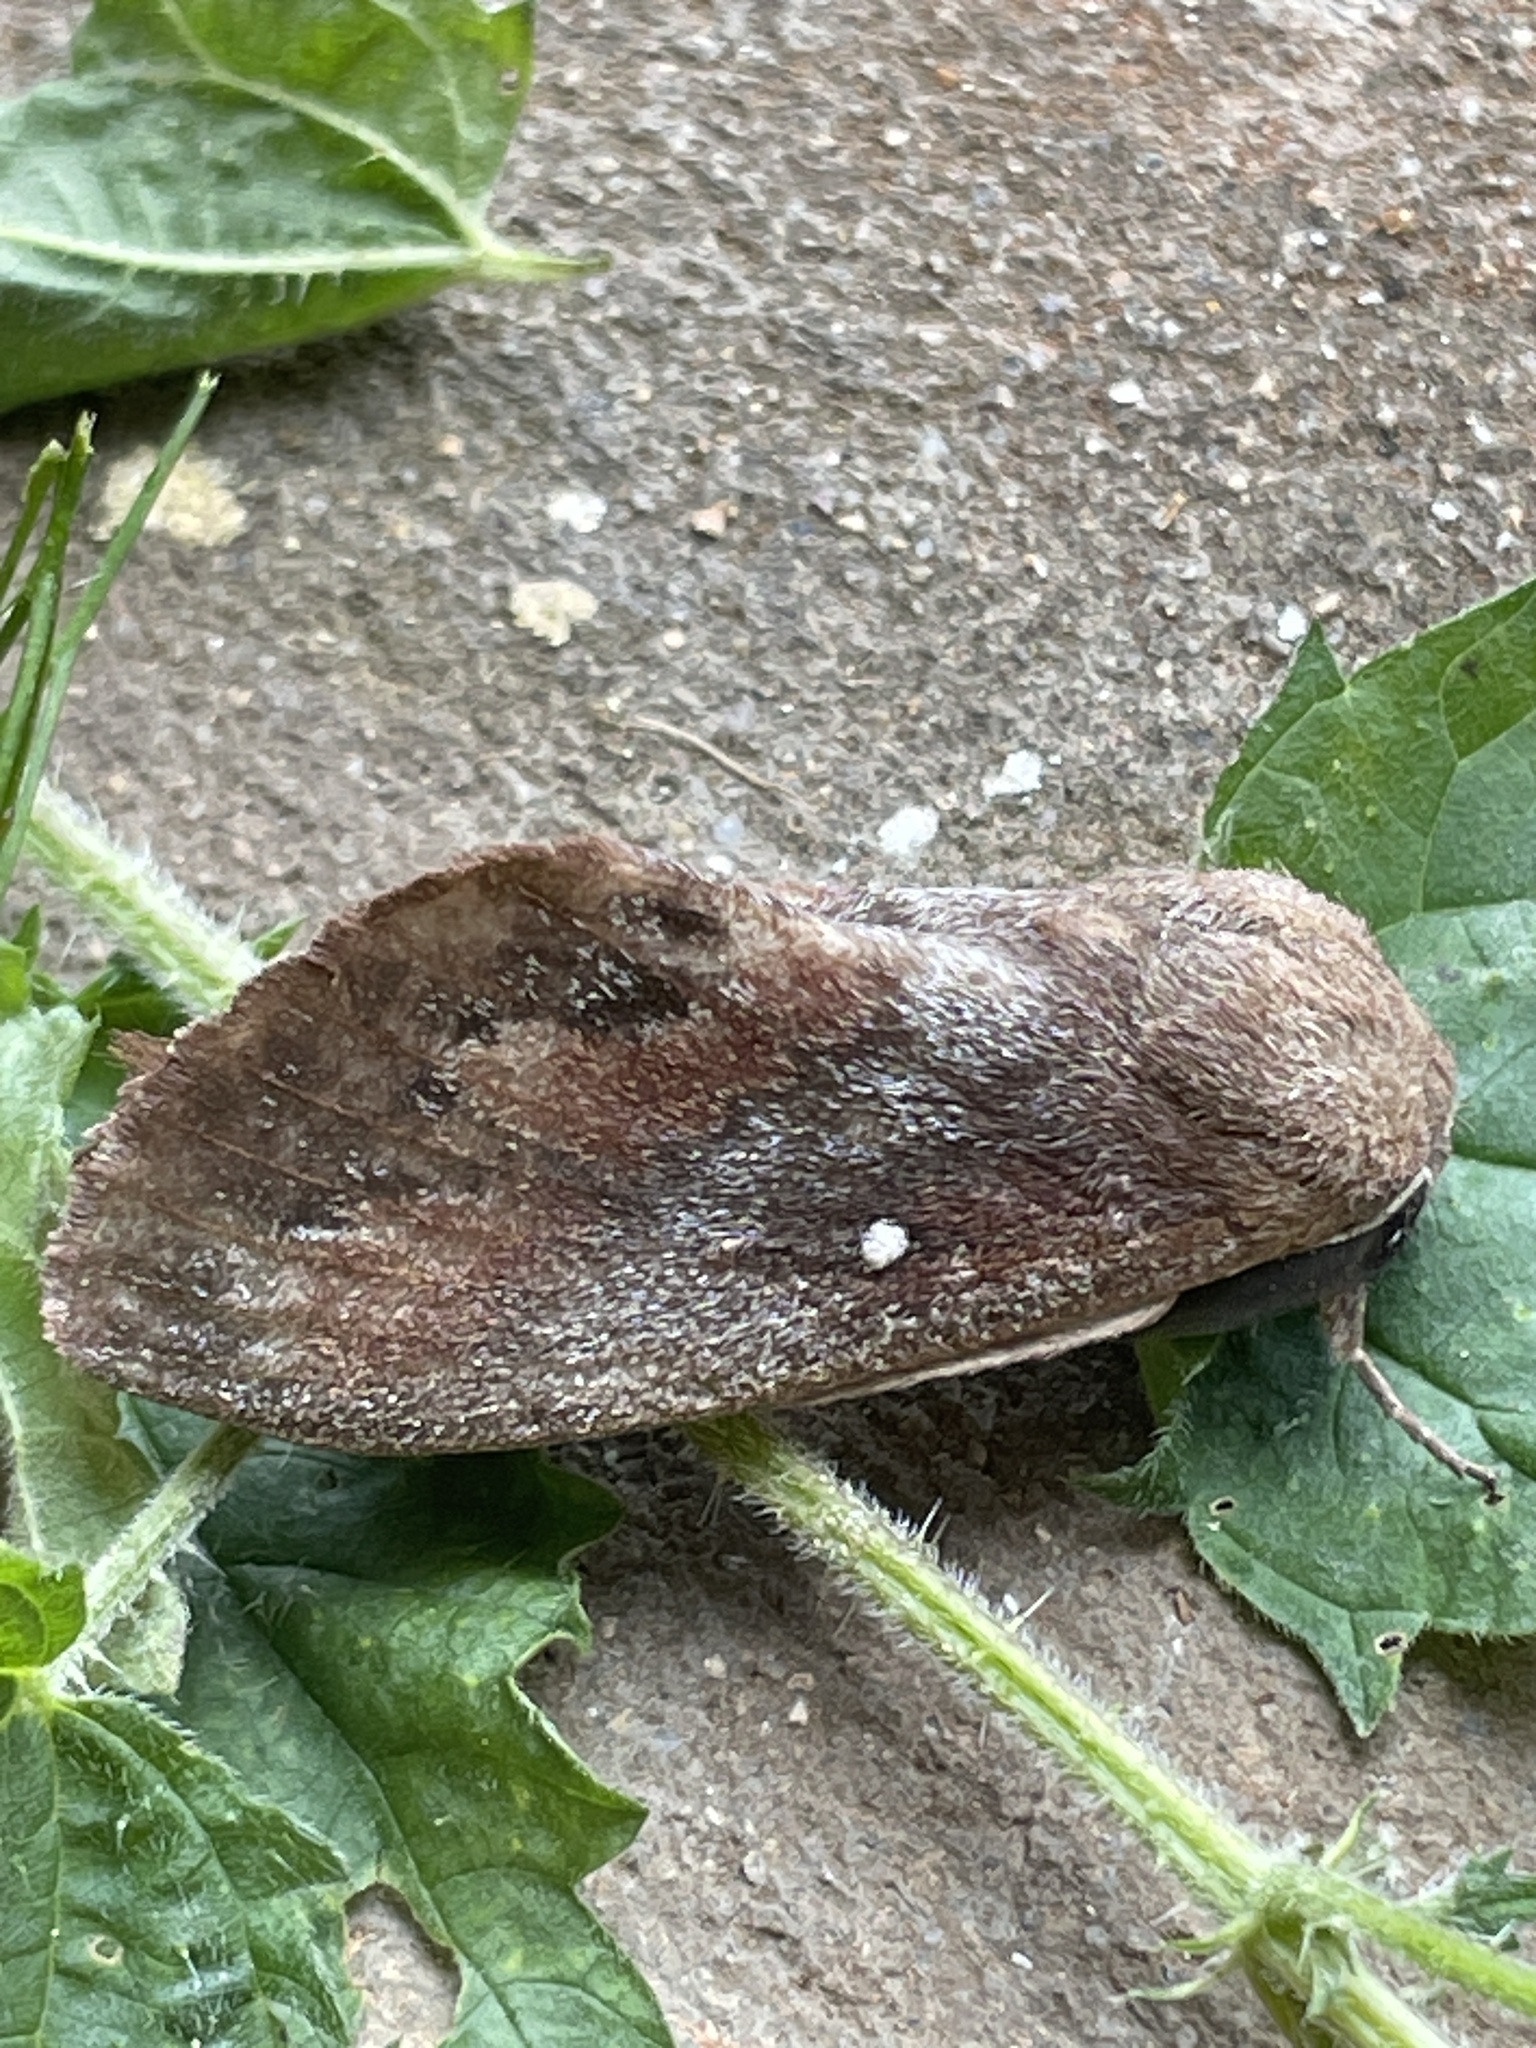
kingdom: Animalia
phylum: Arthropoda
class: Insecta
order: Lepidoptera
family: Lasiocampidae
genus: Dendrolimus
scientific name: Dendrolimus pini
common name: Pine-tree lappet
